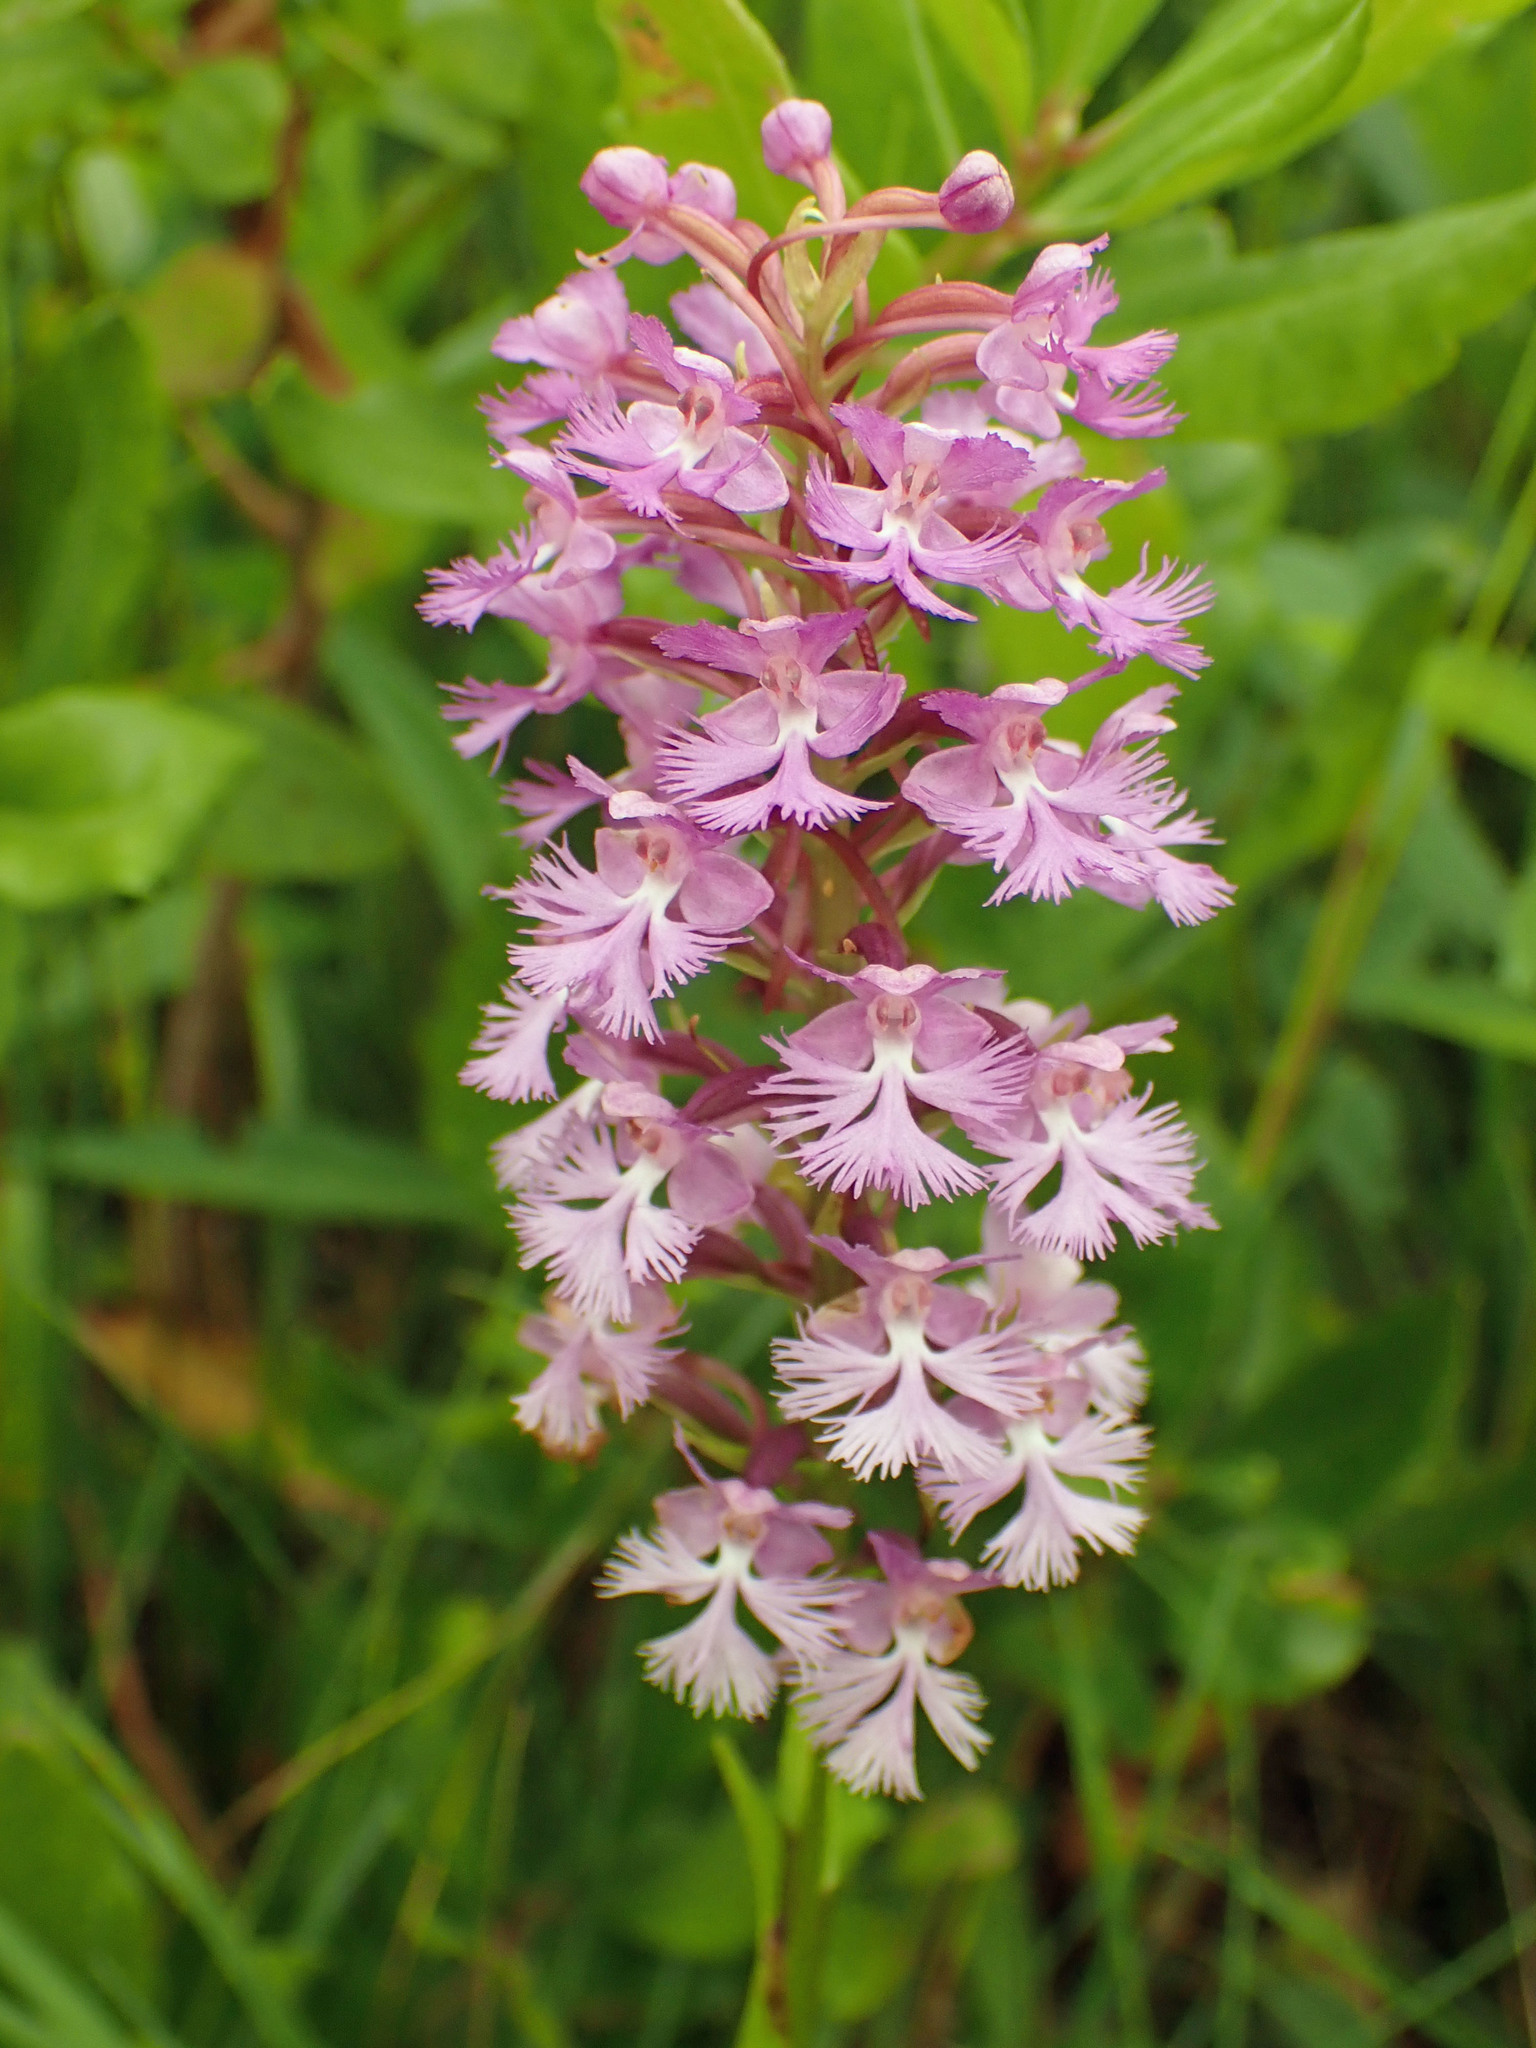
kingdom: Plantae
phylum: Tracheophyta
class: Liliopsida
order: Asparagales
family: Orchidaceae
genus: Platanthera
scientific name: Platanthera psycodes
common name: Lesser purple fringed orchid
